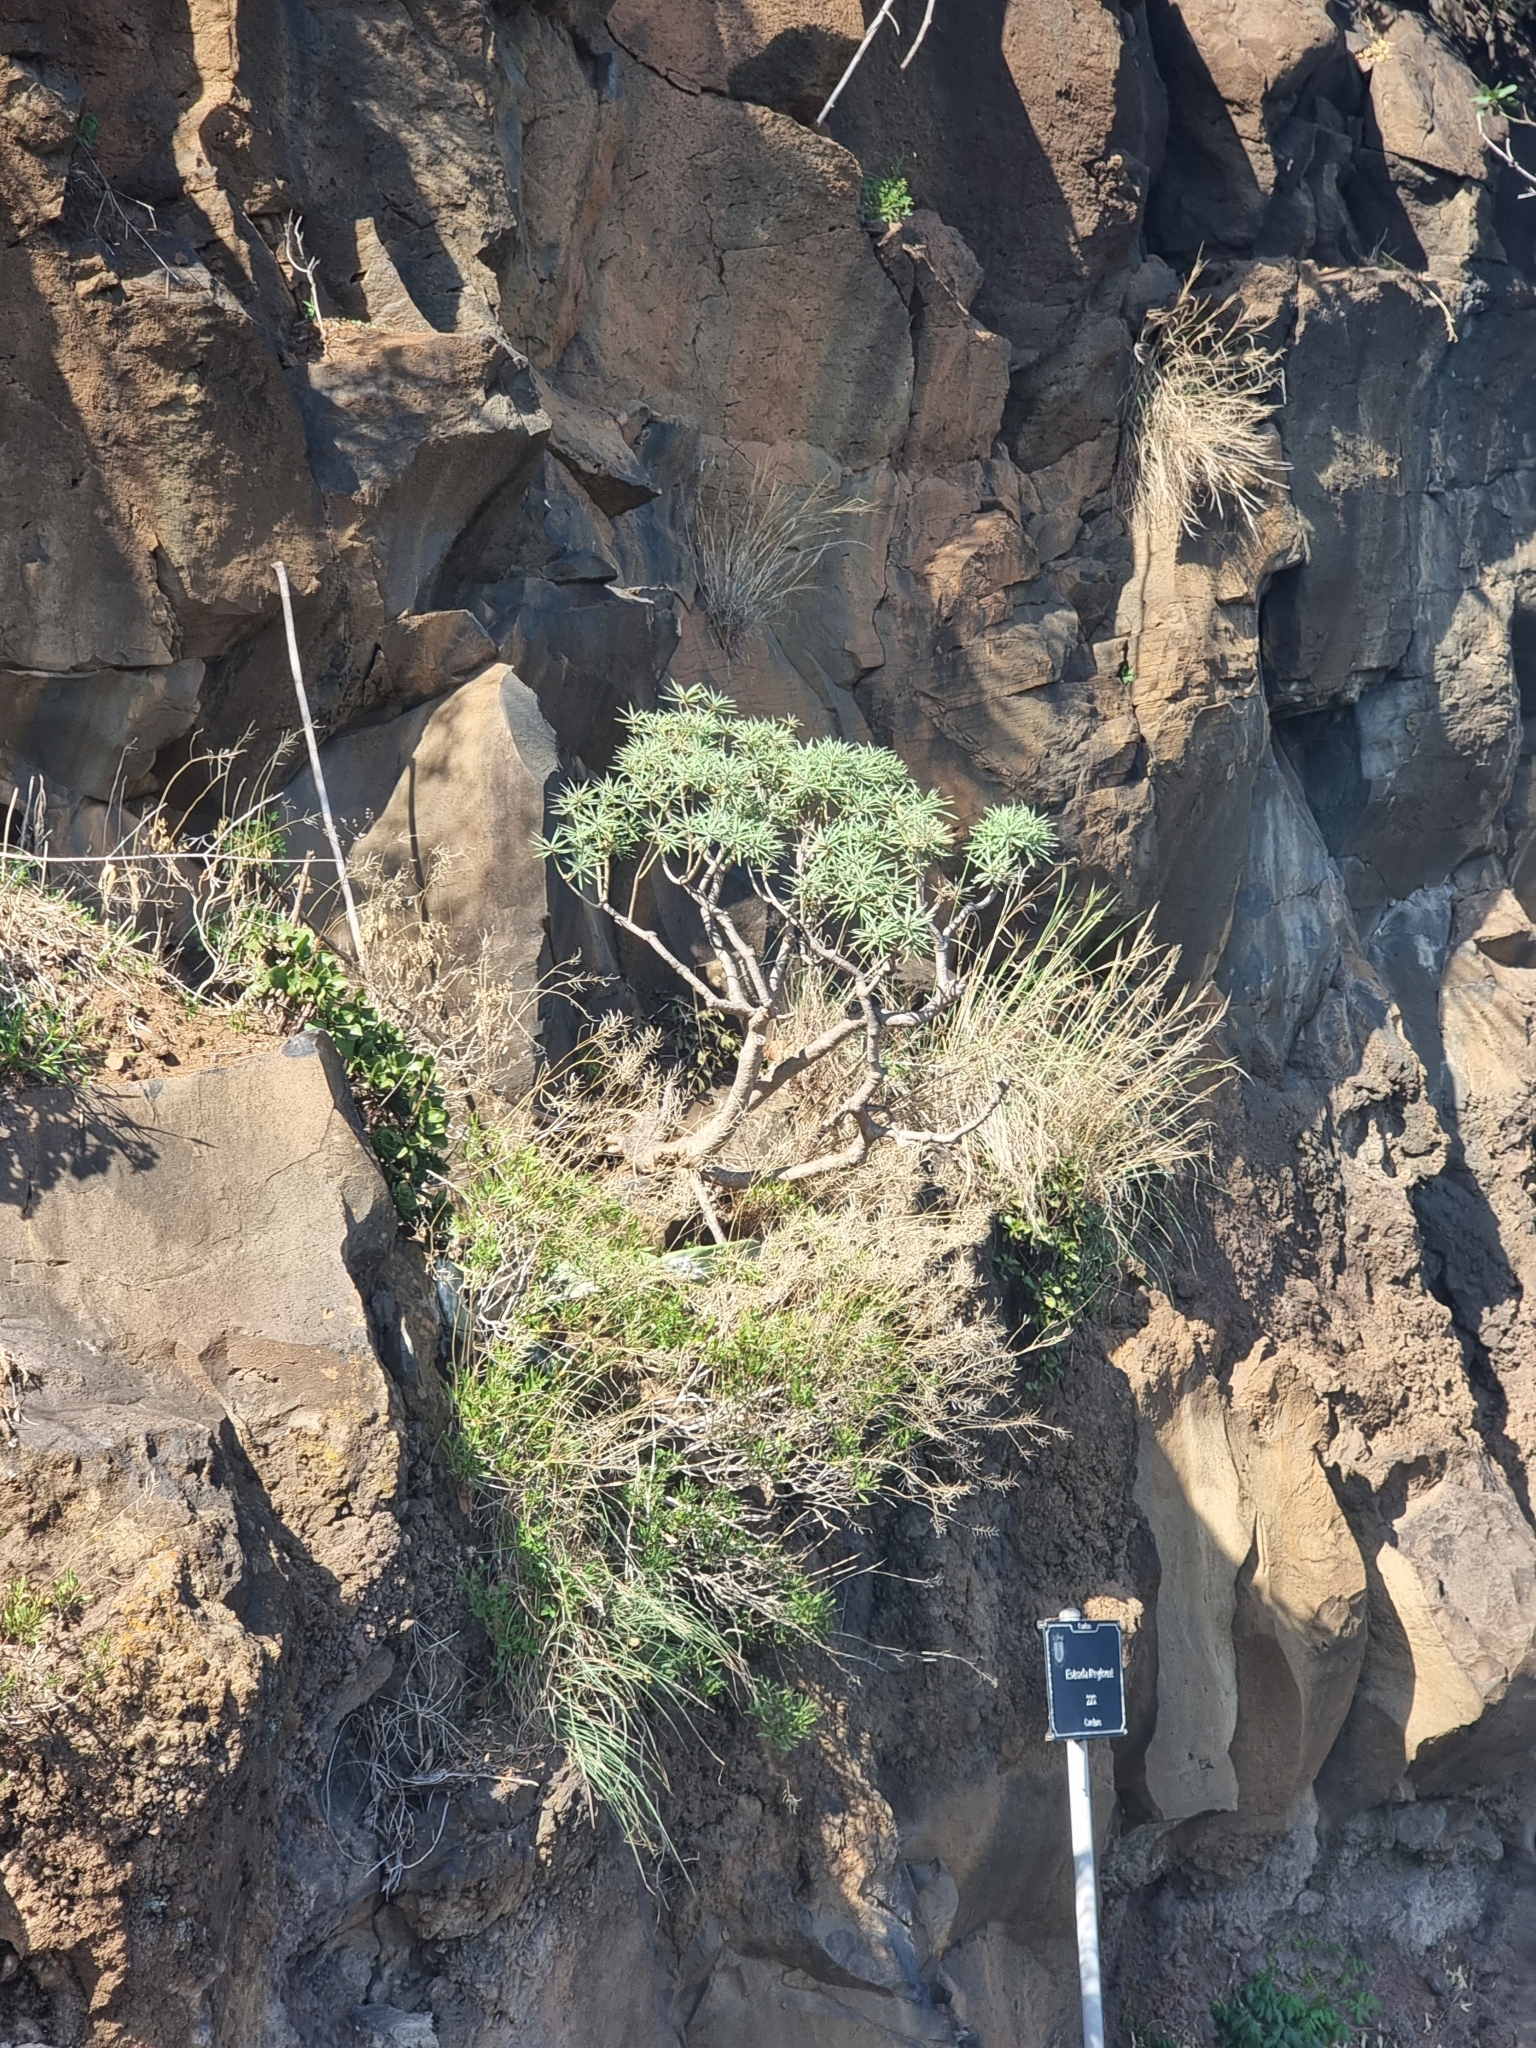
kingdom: Plantae
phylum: Tracheophyta
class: Magnoliopsida
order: Malpighiales
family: Euphorbiaceae
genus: Euphorbia
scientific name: Euphorbia piscatoria
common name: Fish-stunning spurge
